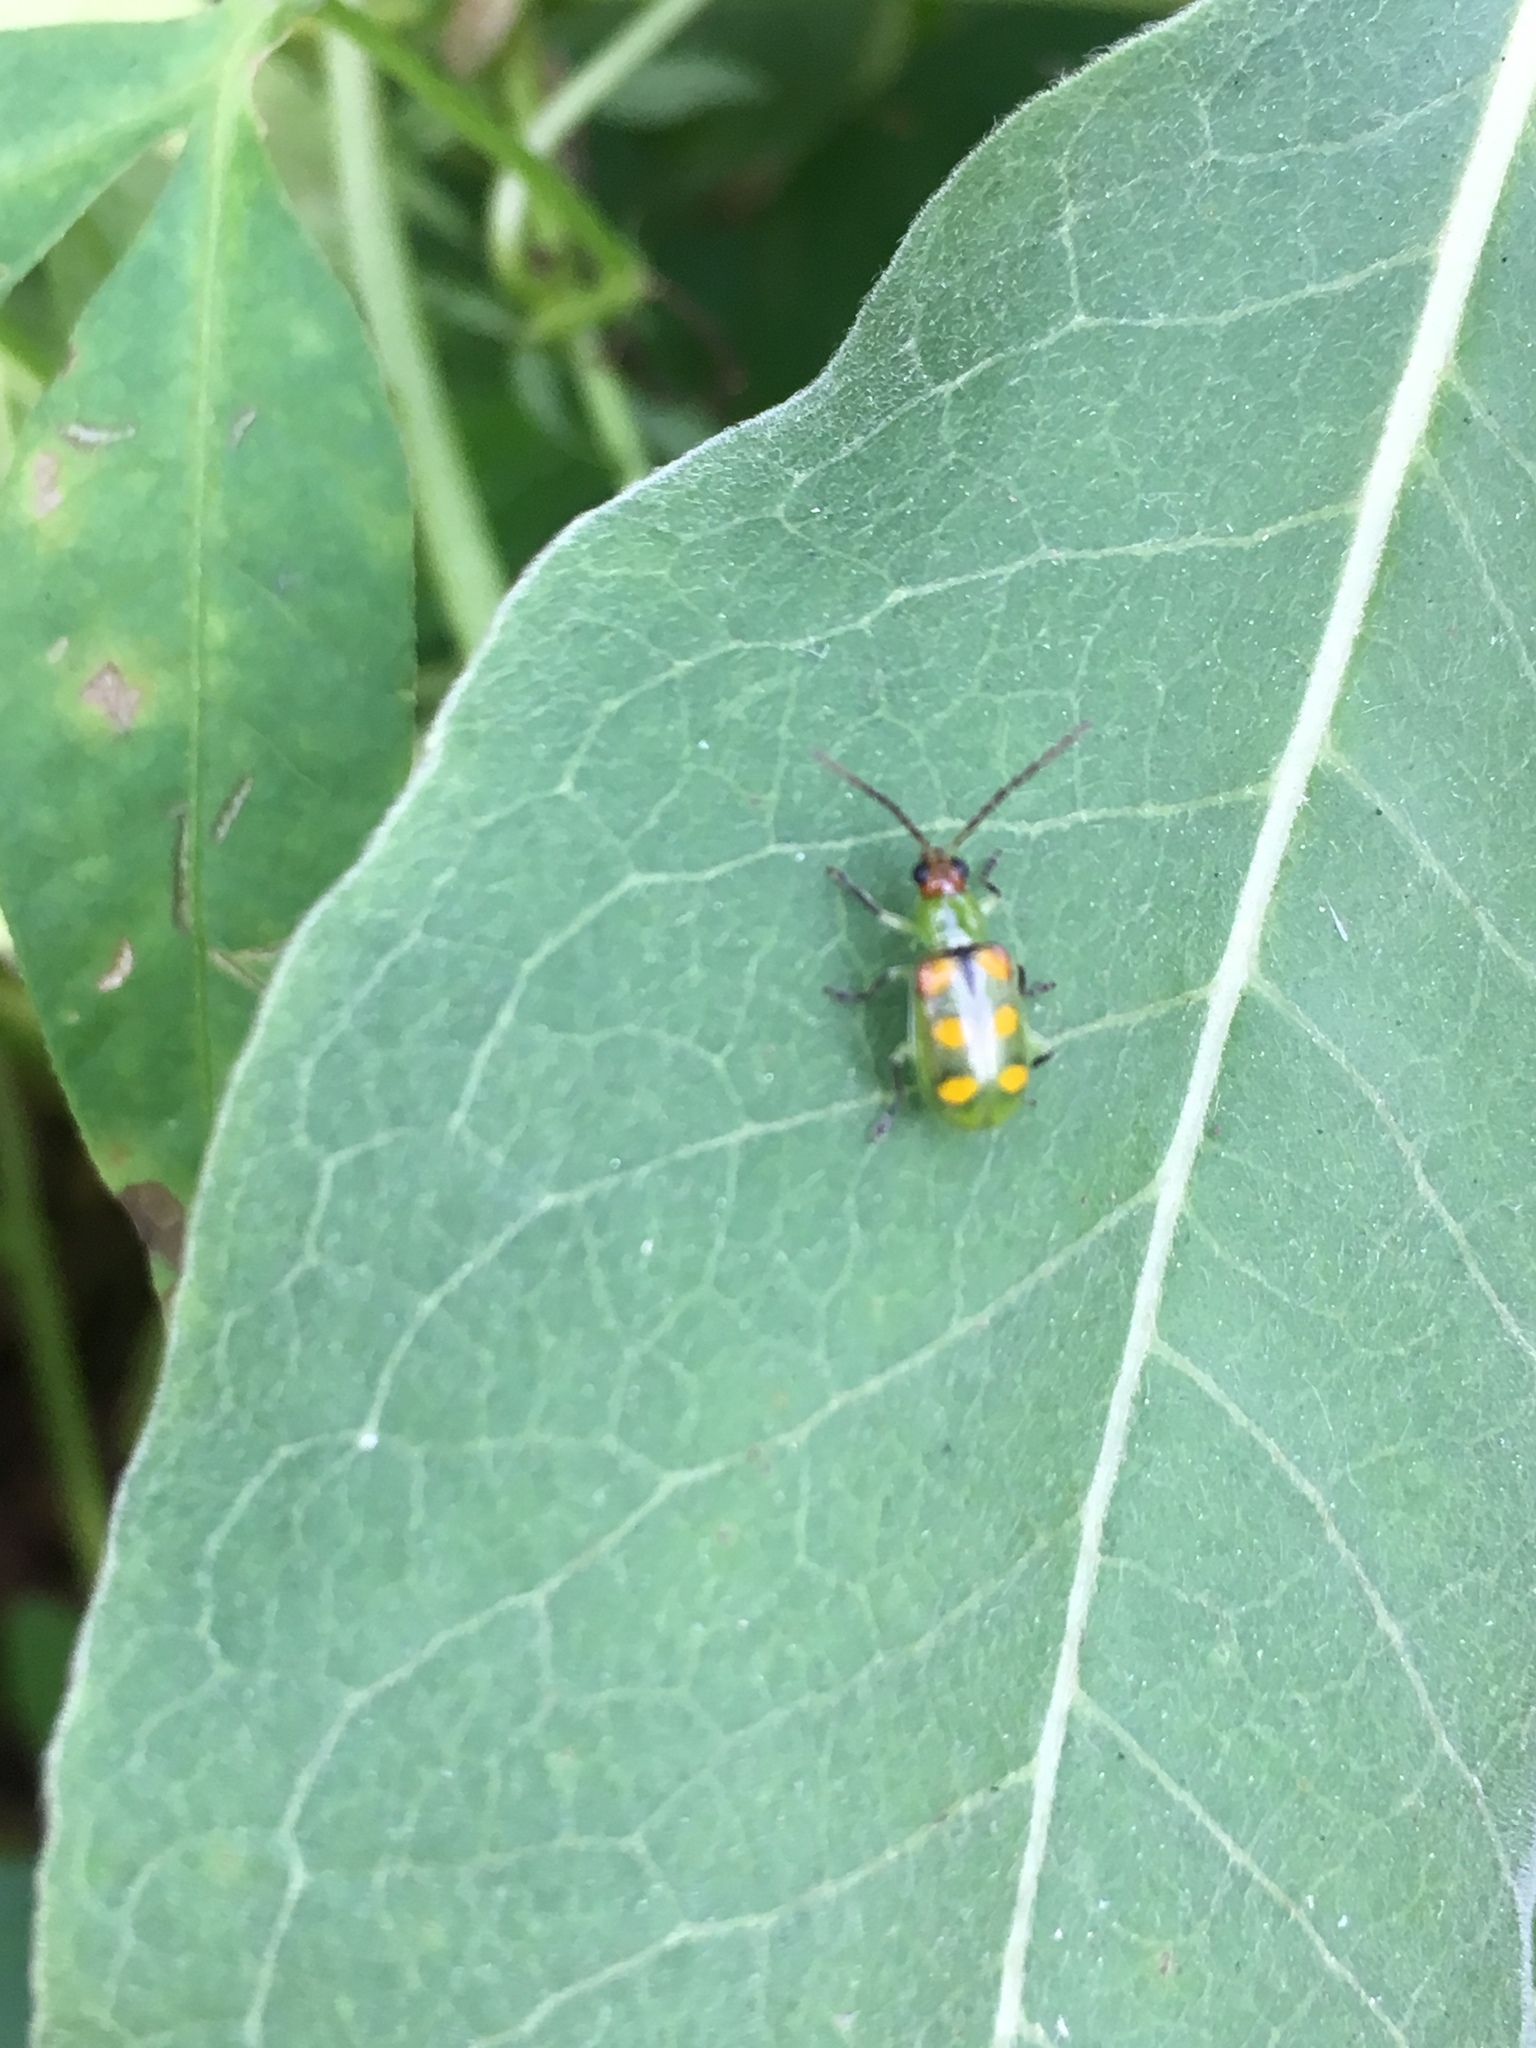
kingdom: Animalia
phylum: Arthropoda
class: Insecta
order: Coleoptera
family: Chrysomelidae
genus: Diabrotica
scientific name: Diabrotica speciosa
